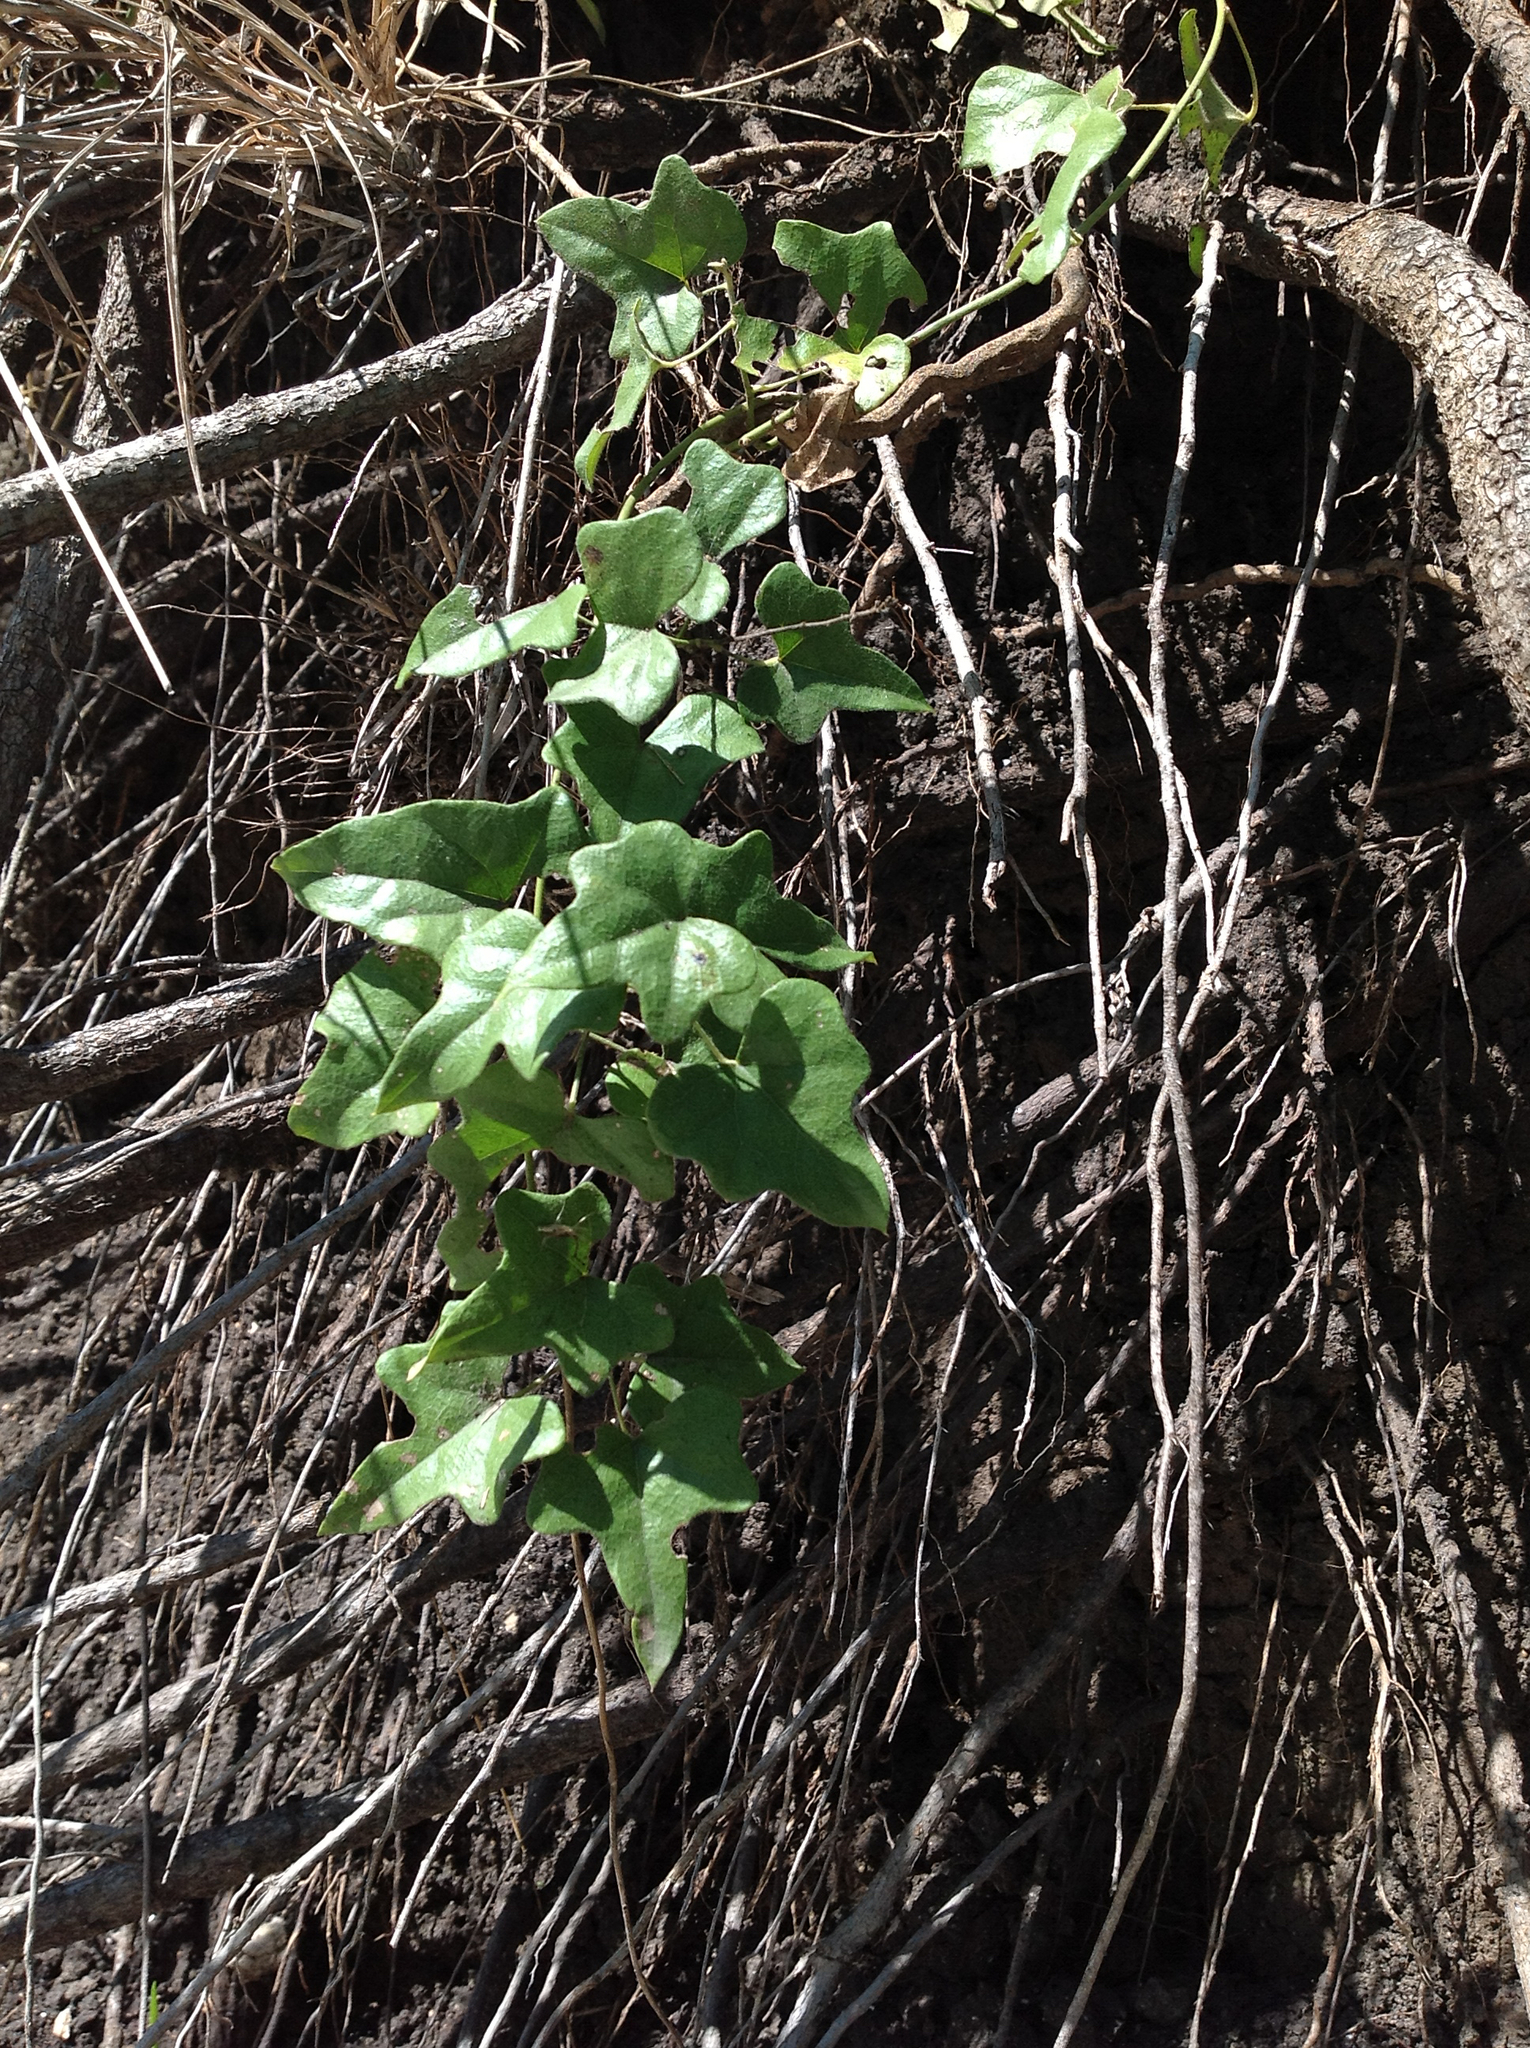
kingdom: Plantae
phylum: Tracheophyta
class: Magnoliopsida
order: Ranunculales
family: Menispermaceae
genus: Cocculus
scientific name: Cocculus carolinus
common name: Carolina moonseed
